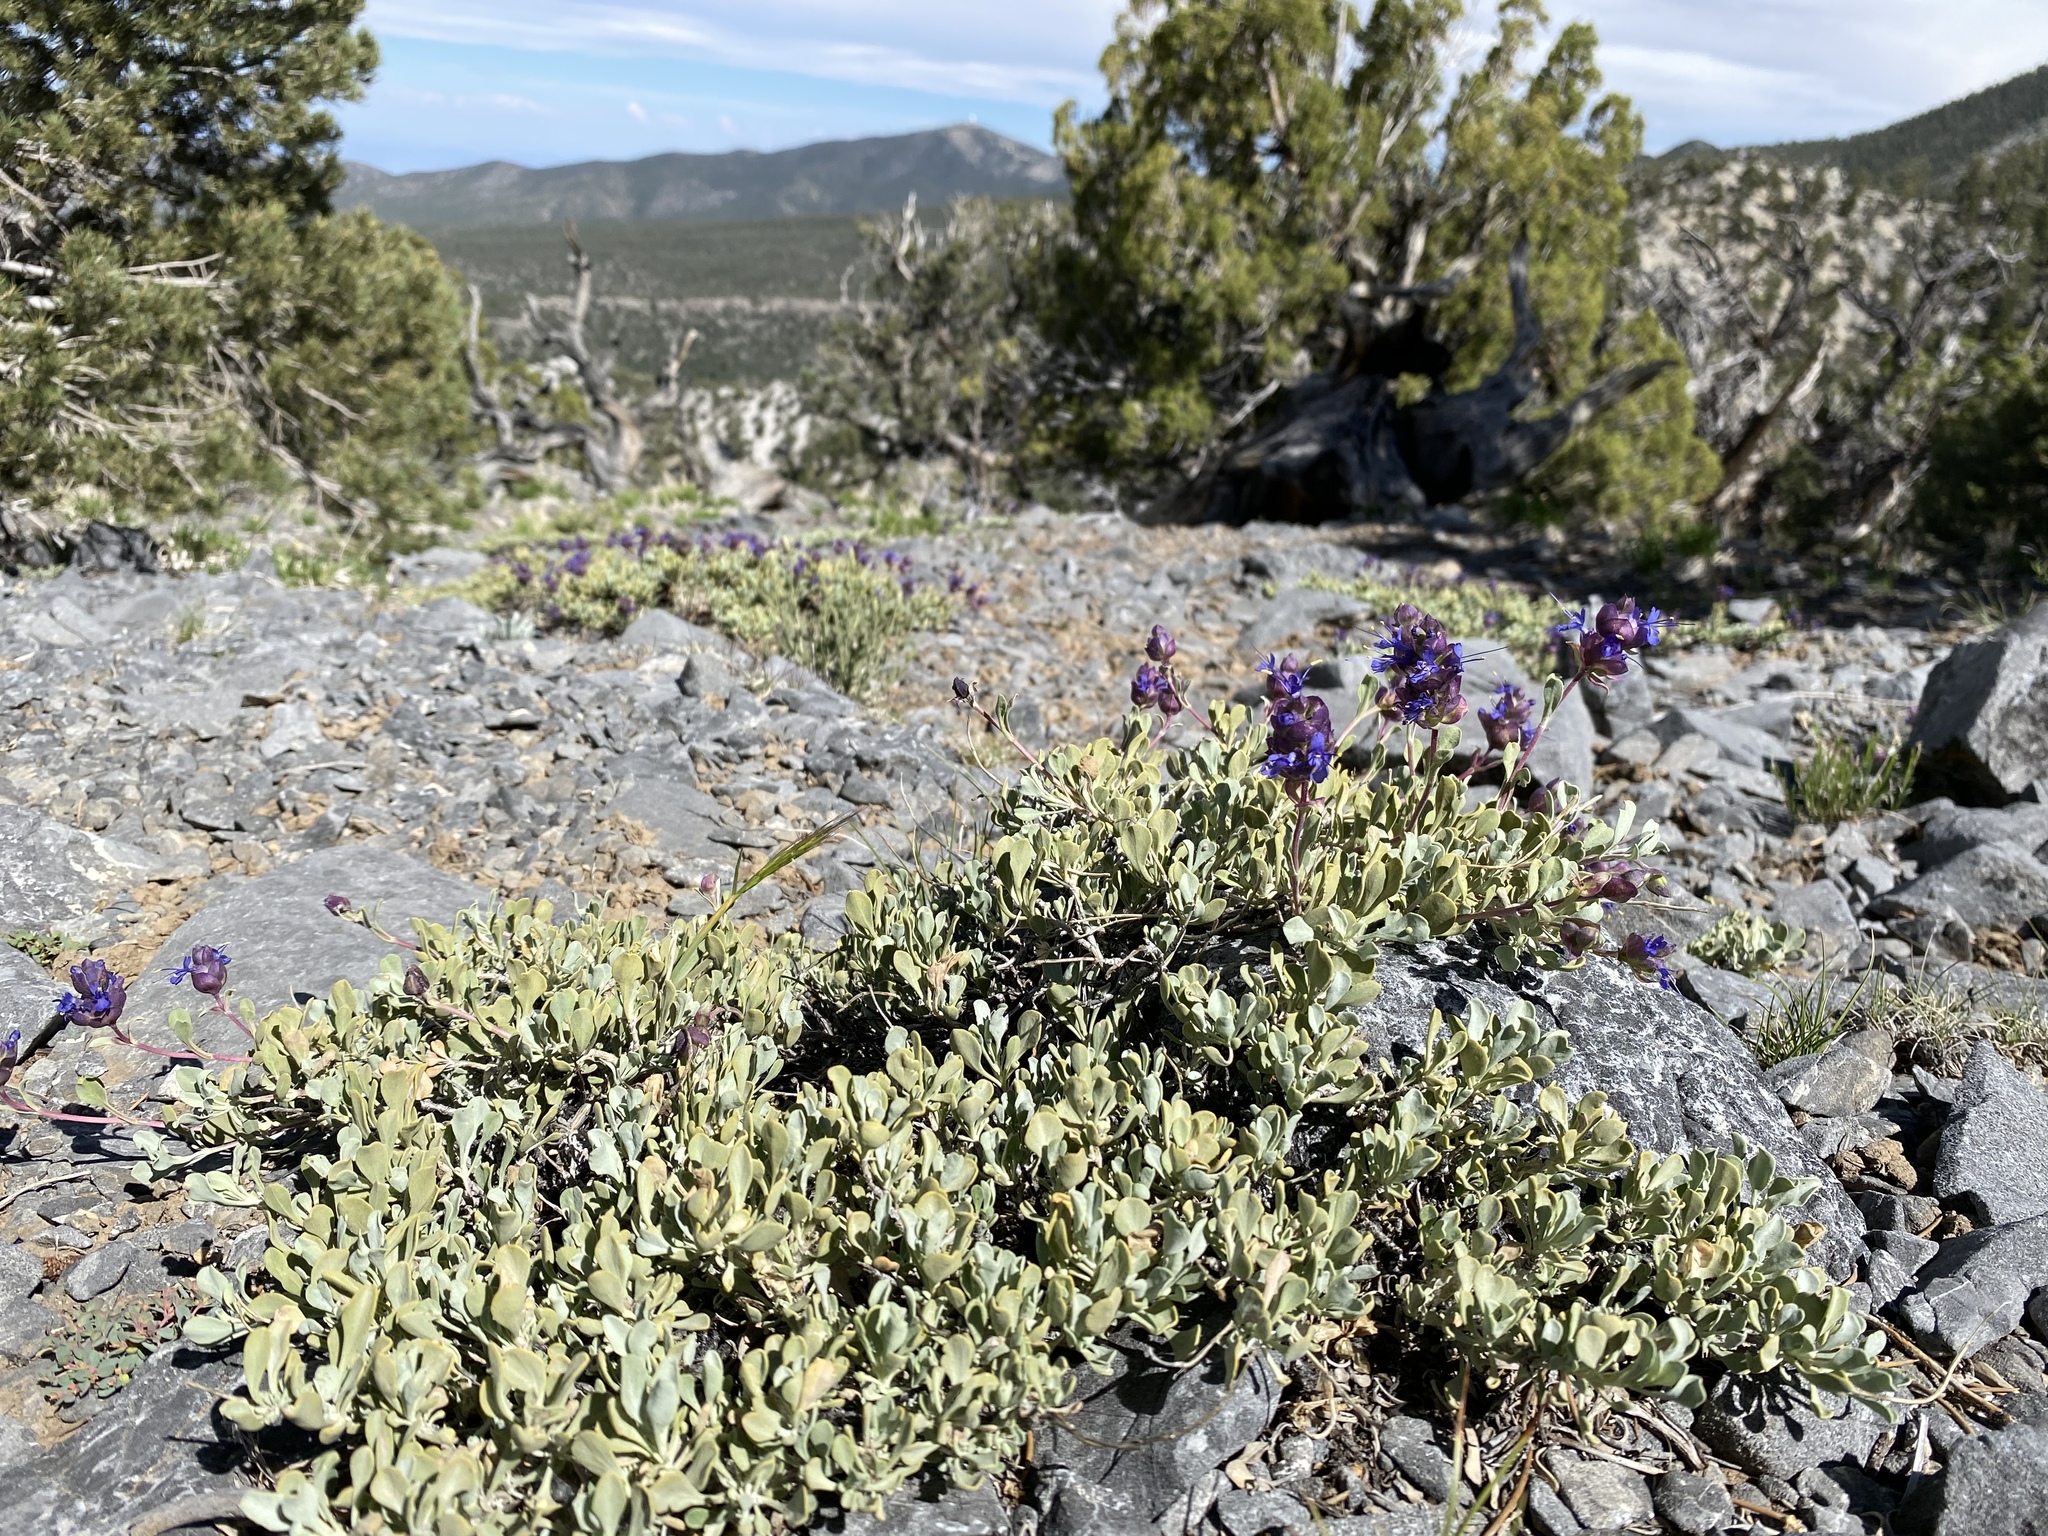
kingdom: Plantae
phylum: Tracheophyta
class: Magnoliopsida
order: Lamiales
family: Lamiaceae
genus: Salvia
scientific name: Salvia dorrii
